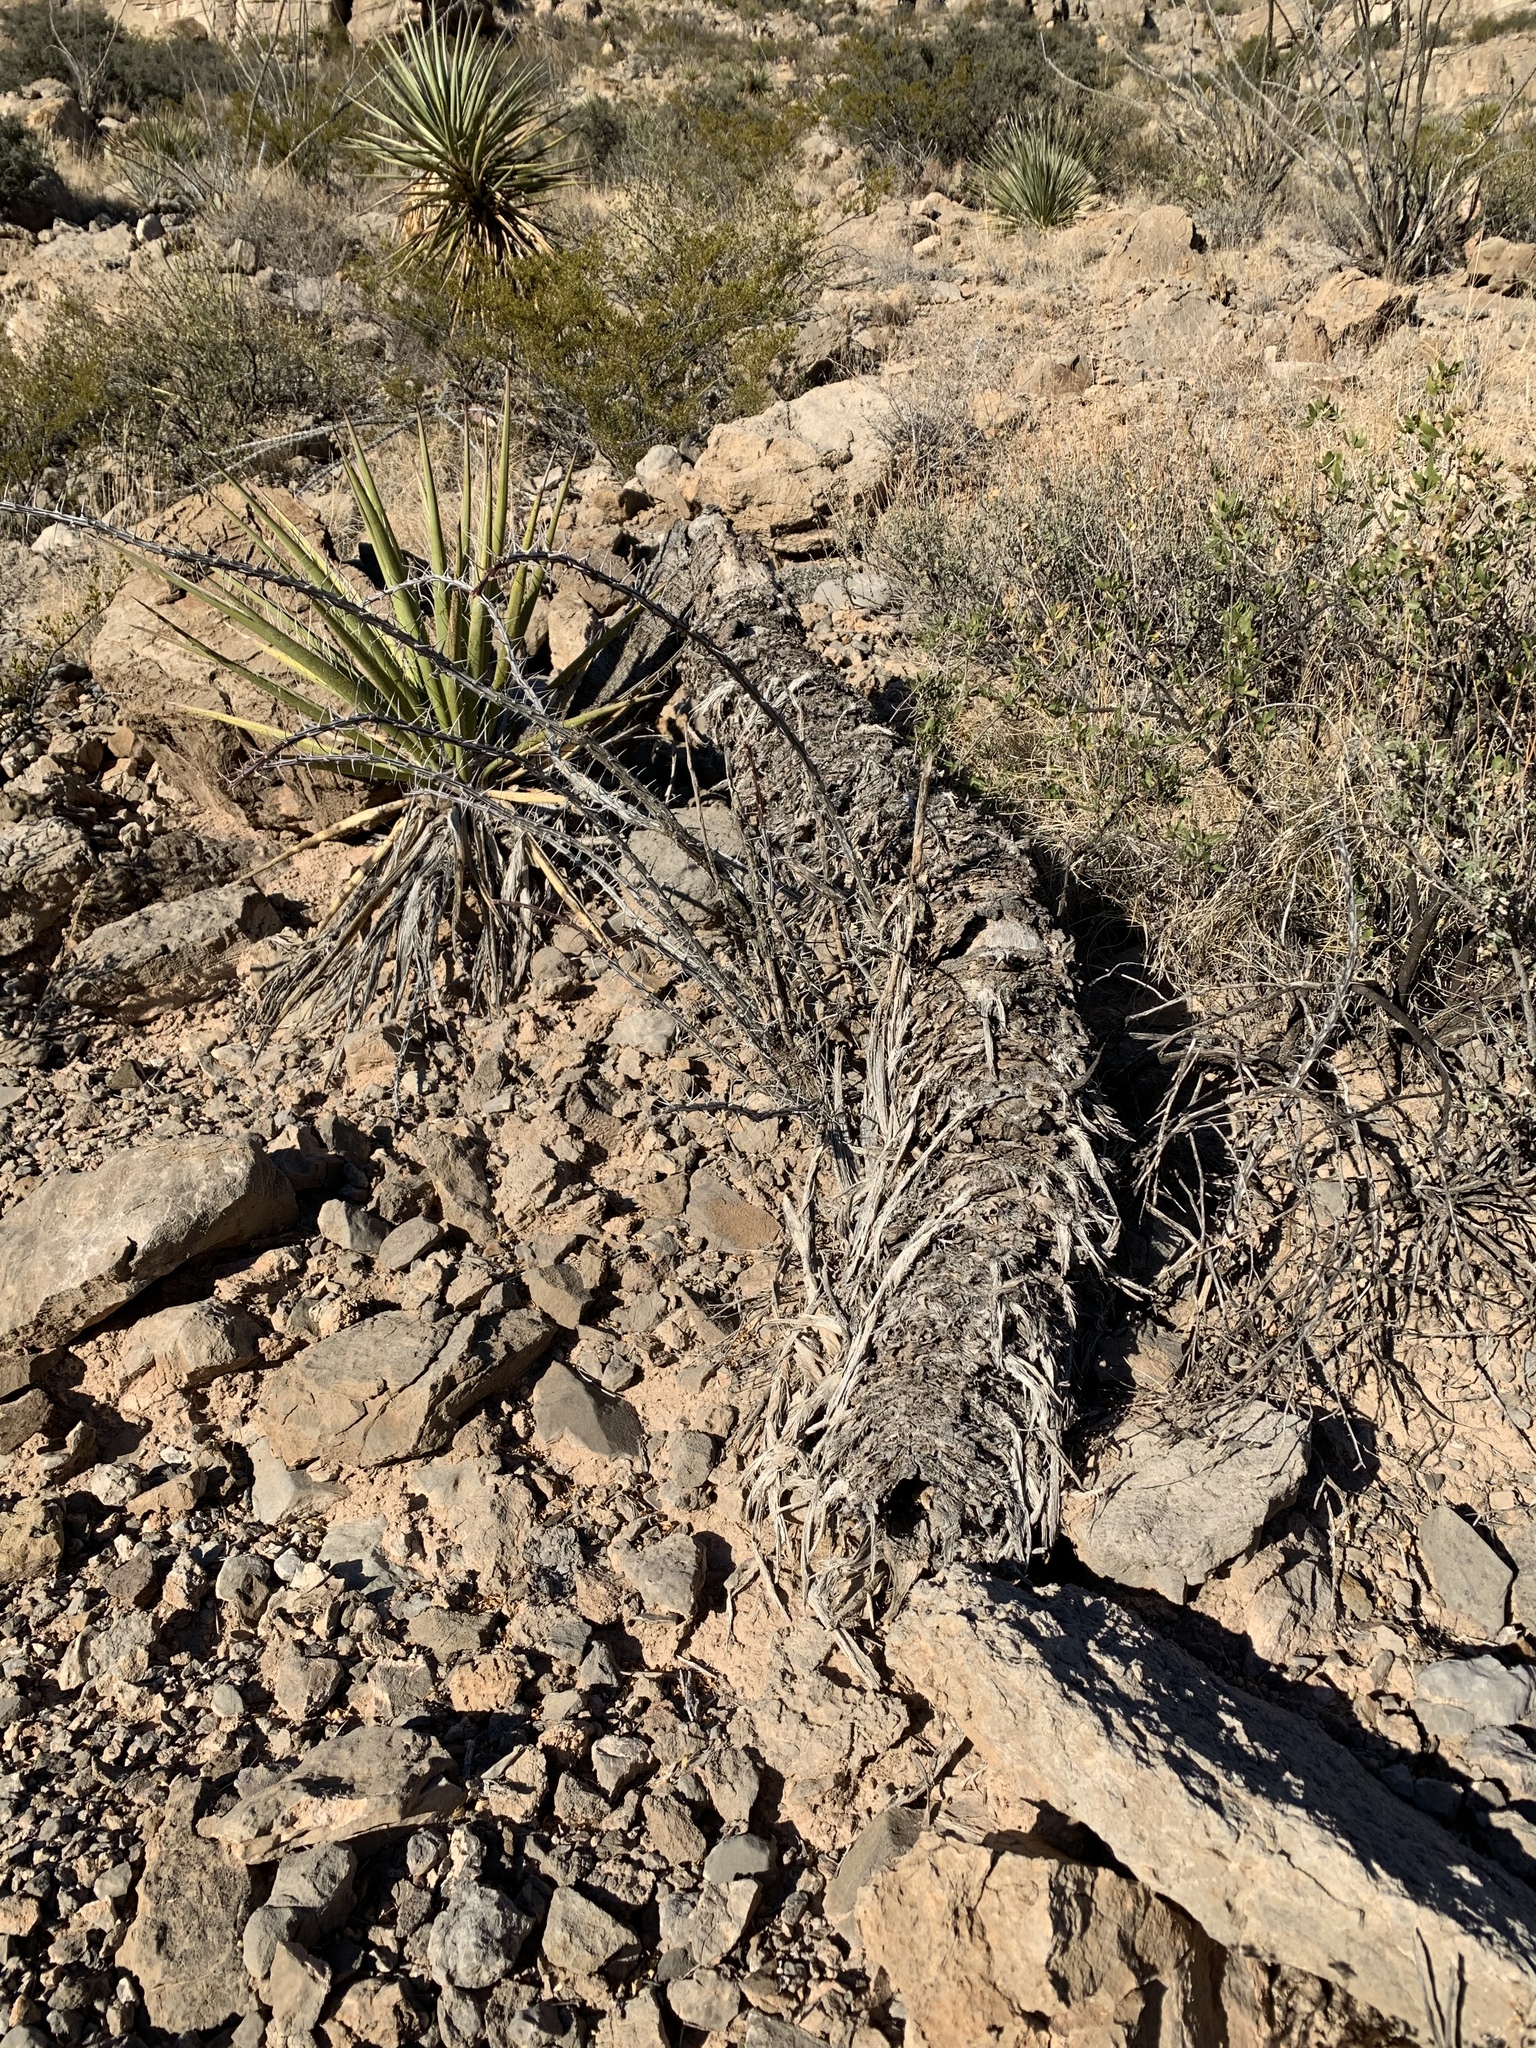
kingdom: Plantae
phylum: Tracheophyta
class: Liliopsida
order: Asparagales
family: Asparagaceae
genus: Yucca
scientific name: Yucca treculiana
